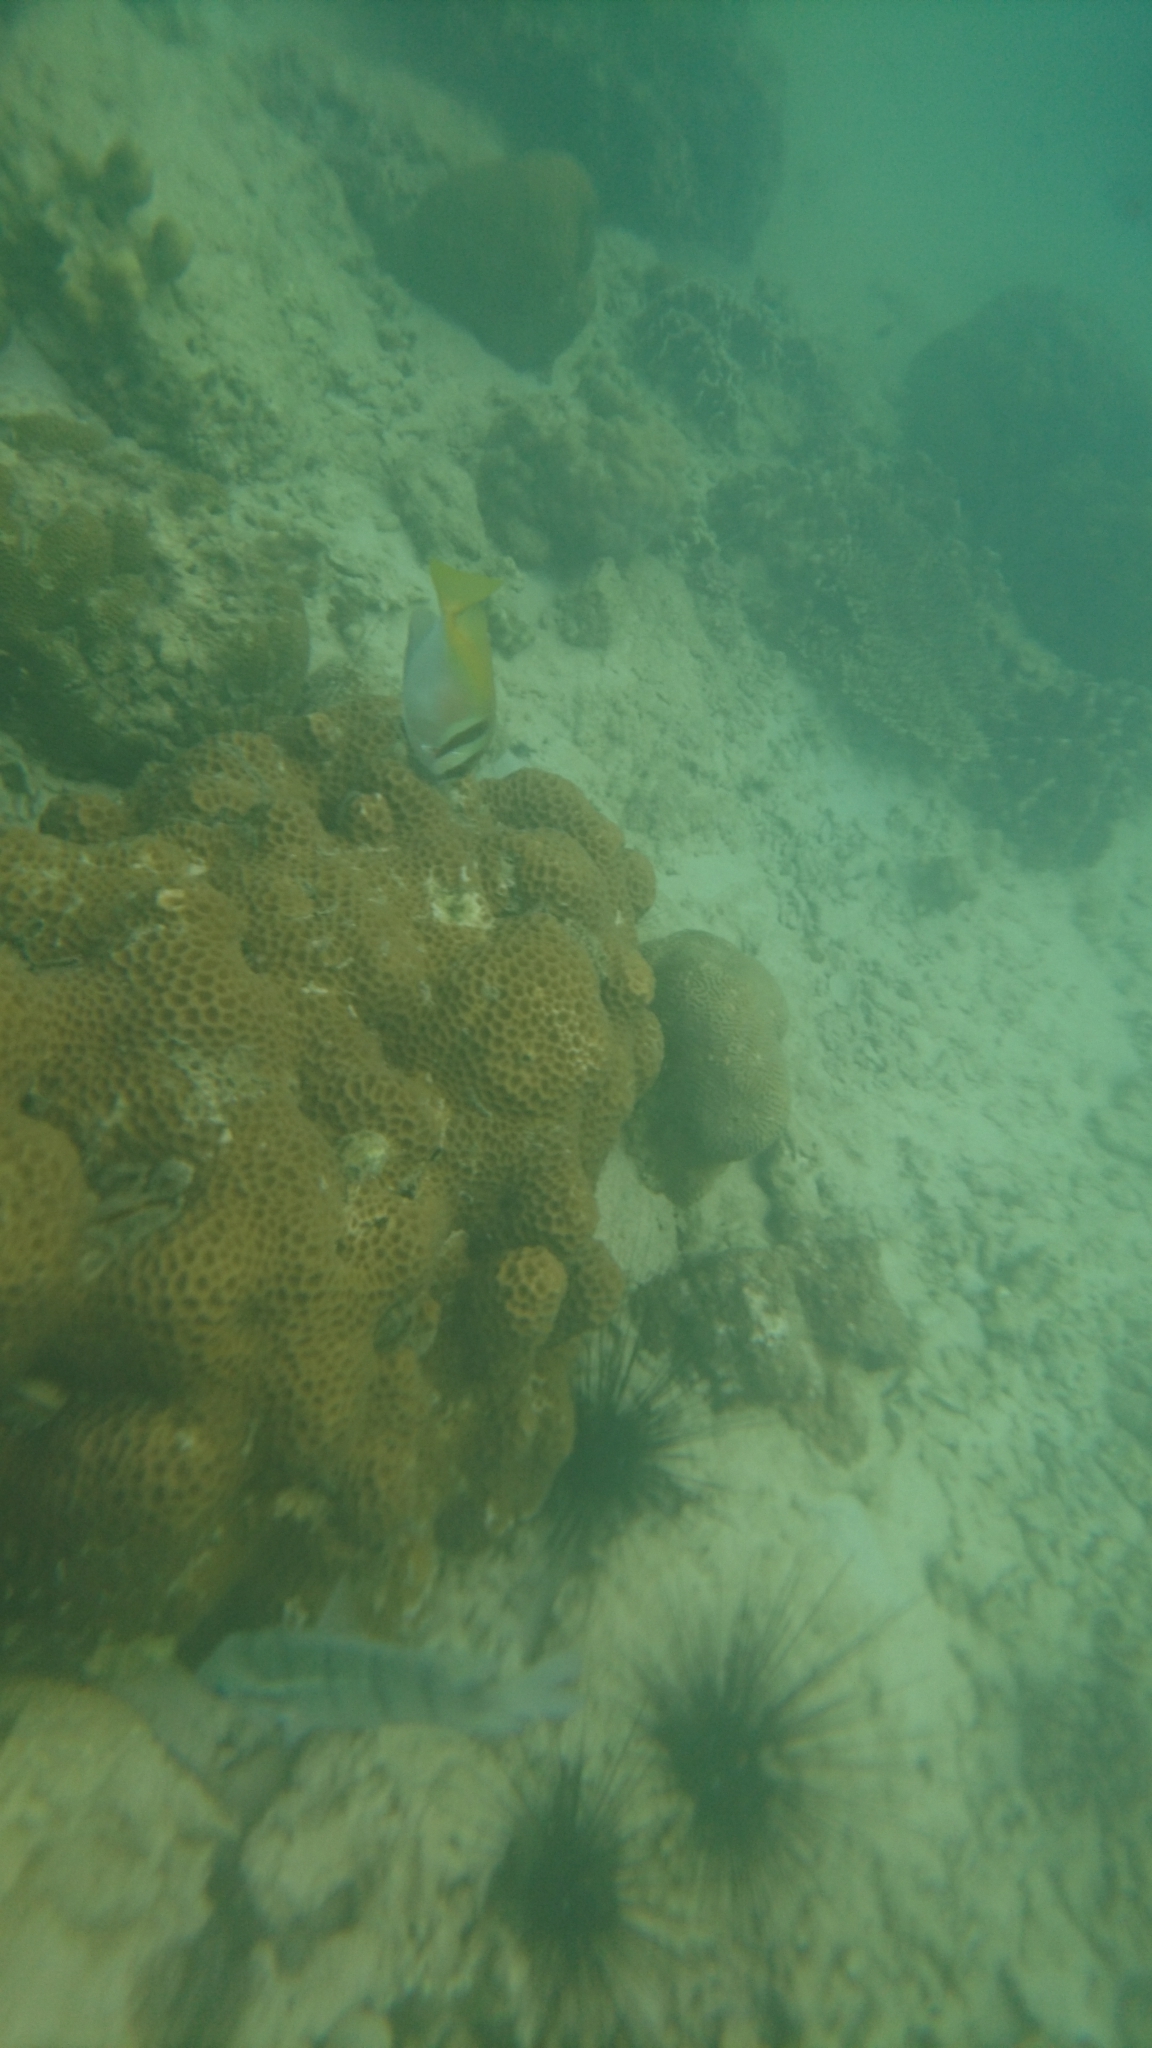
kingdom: Animalia
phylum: Chordata
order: Perciformes
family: Siganidae
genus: Siganus
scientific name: Siganus virgatus
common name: Barhead spinefoot
